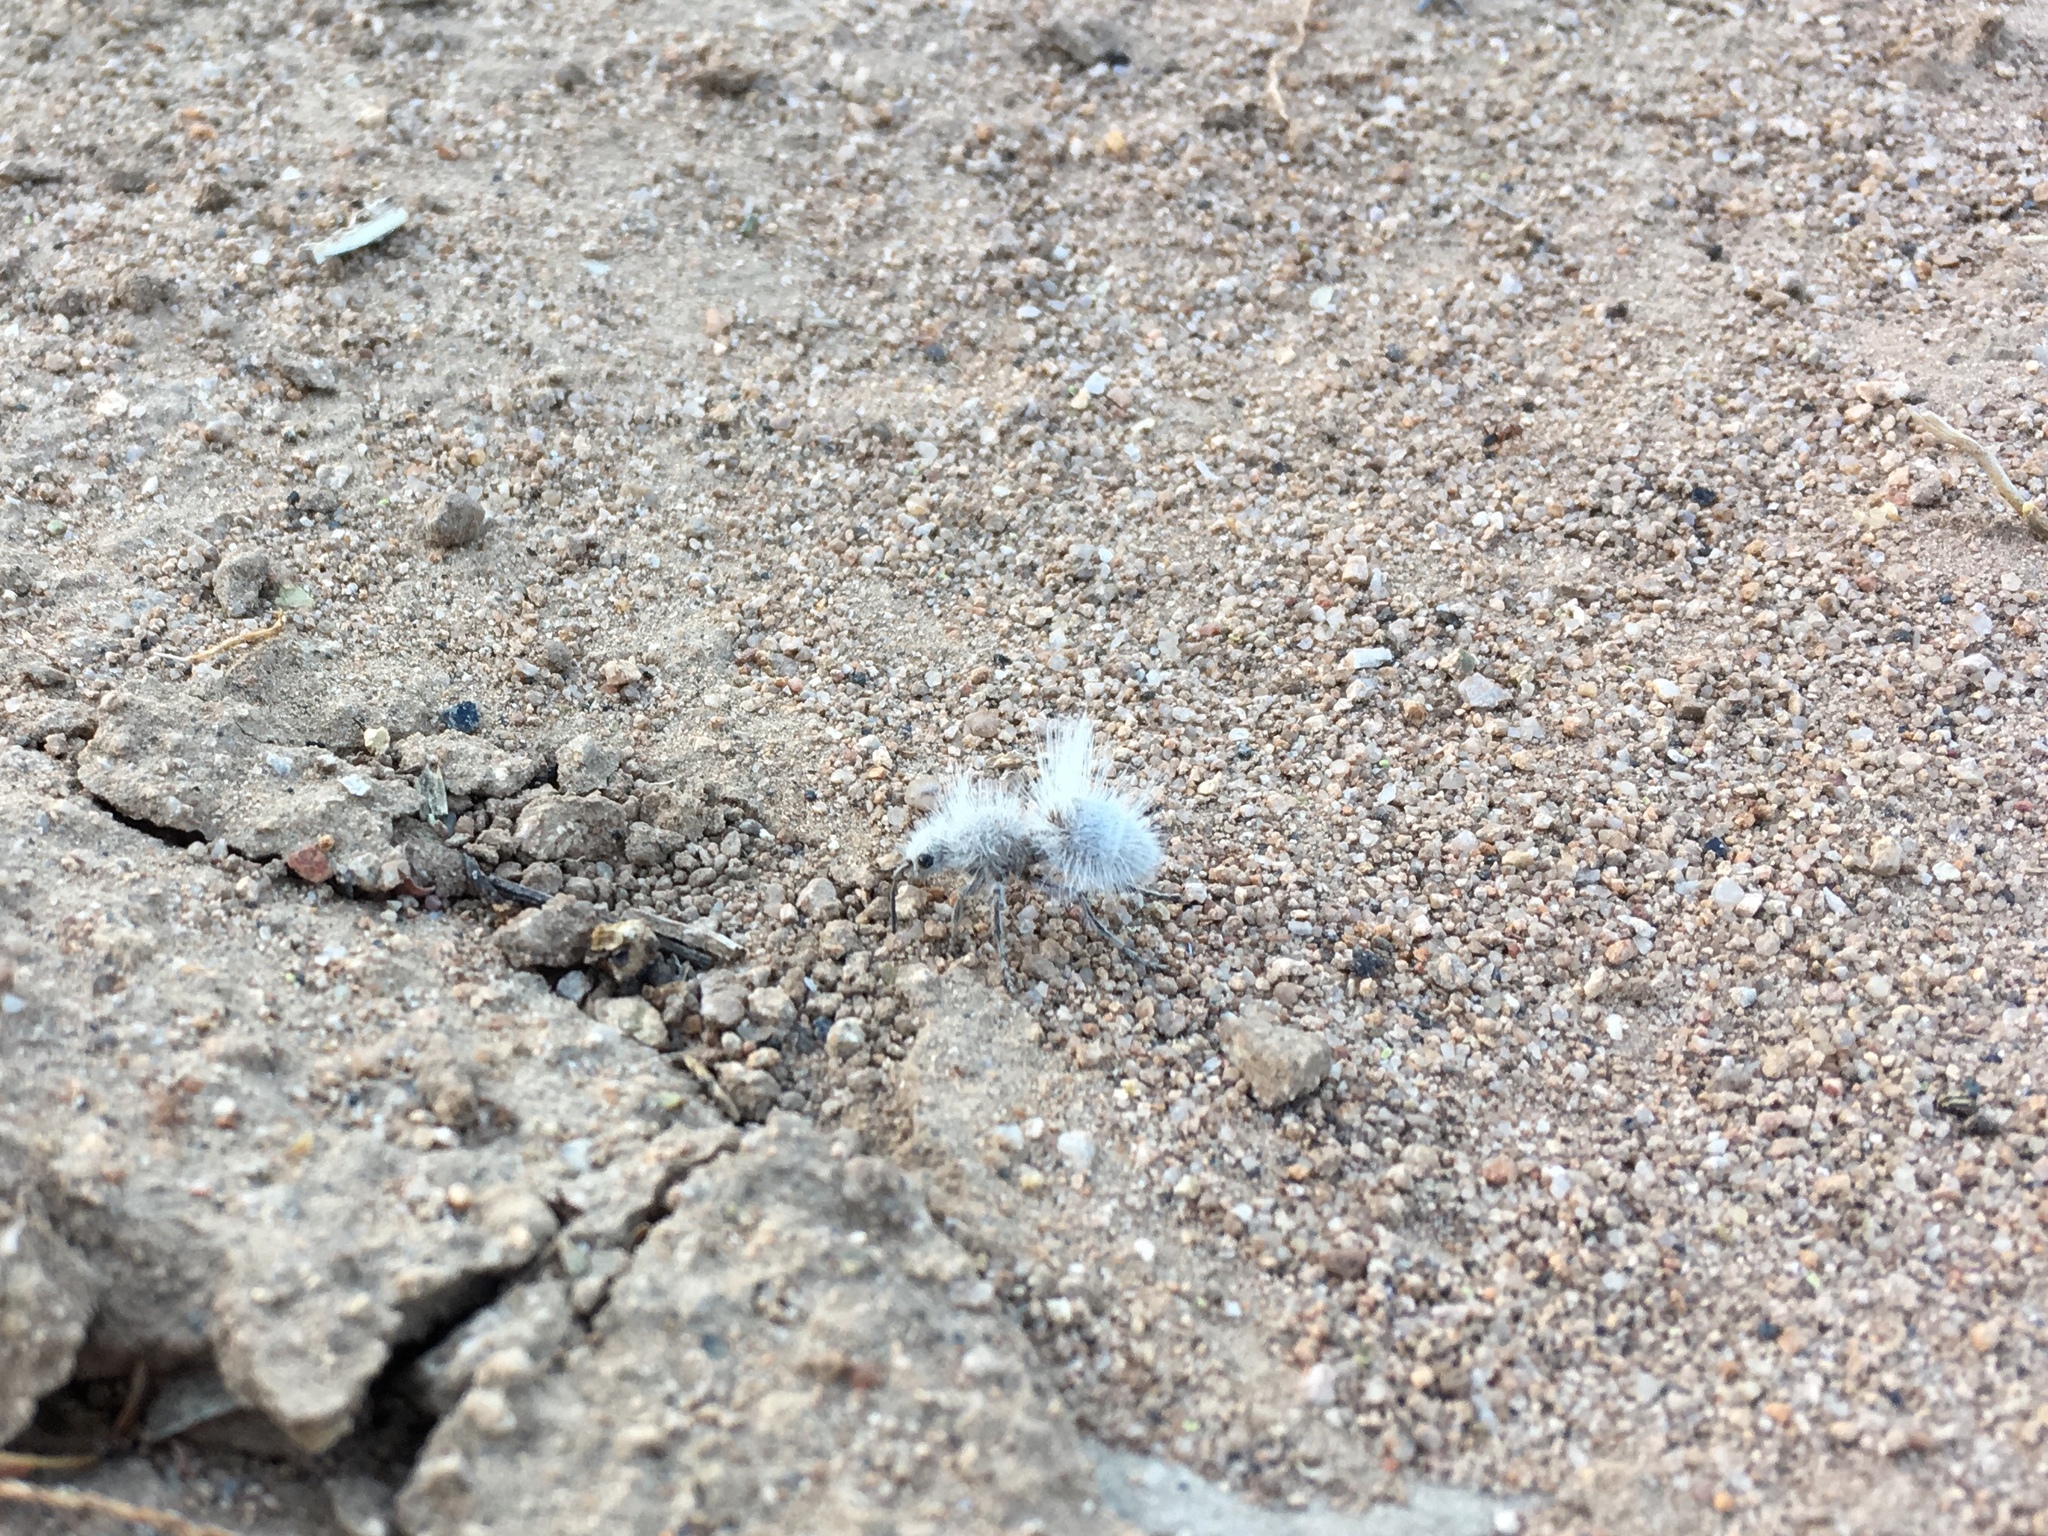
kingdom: Animalia
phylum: Arthropoda
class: Insecta
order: Hymenoptera
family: Mutillidae
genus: Dasymutilla
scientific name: Dasymutilla gloriosa
